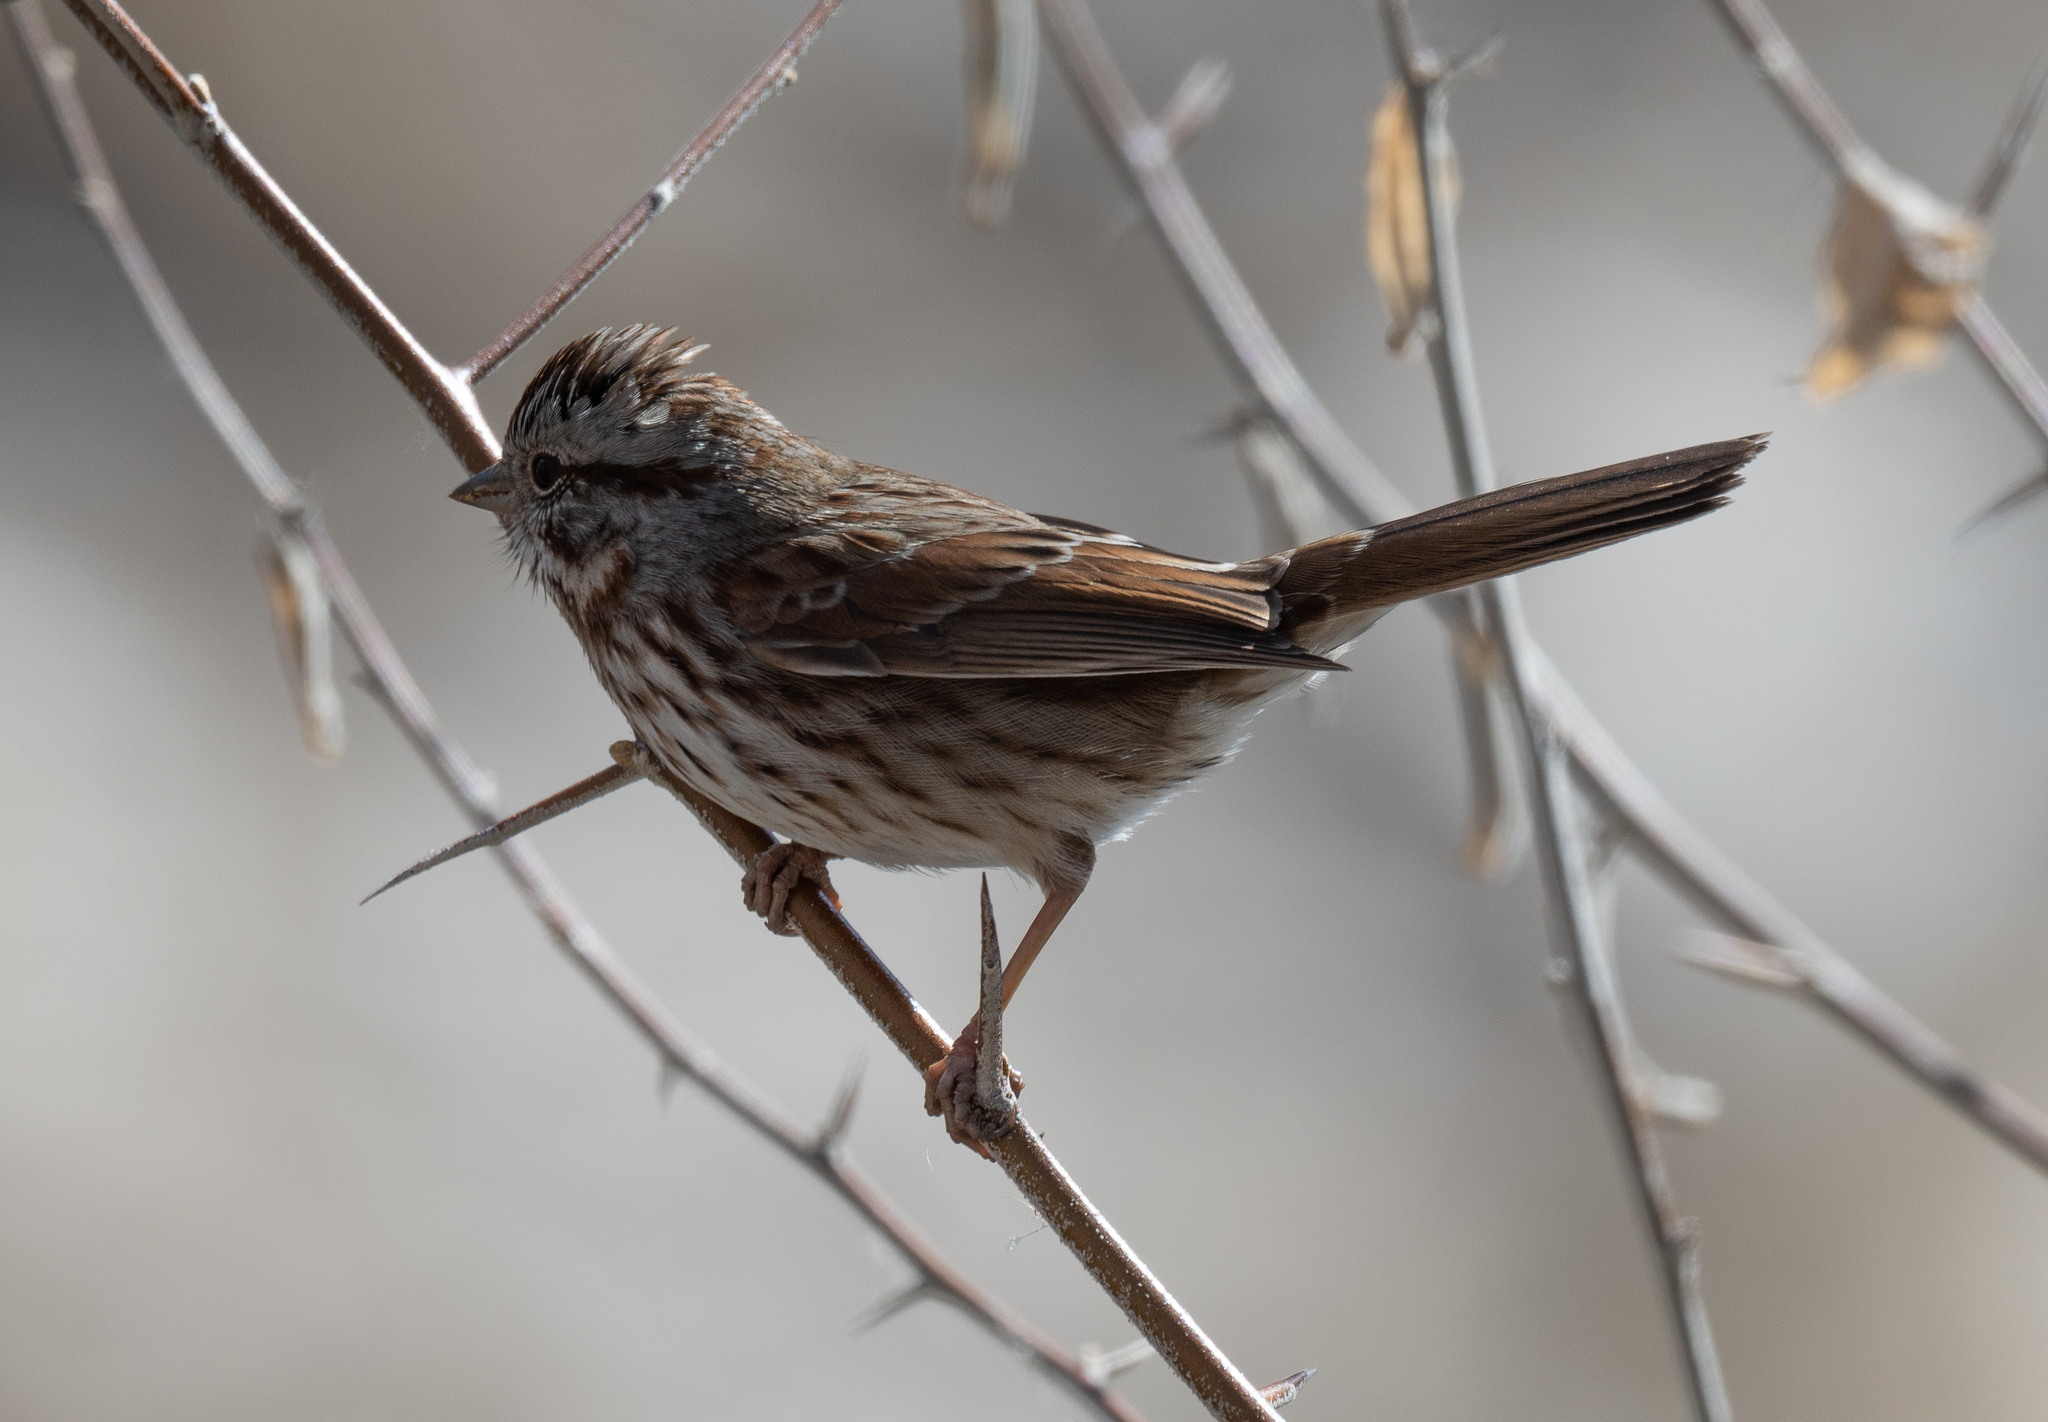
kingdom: Animalia
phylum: Chordata
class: Aves
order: Passeriformes
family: Passerellidae
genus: Melospiza
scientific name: Melospiza melodia
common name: Song sparrow
